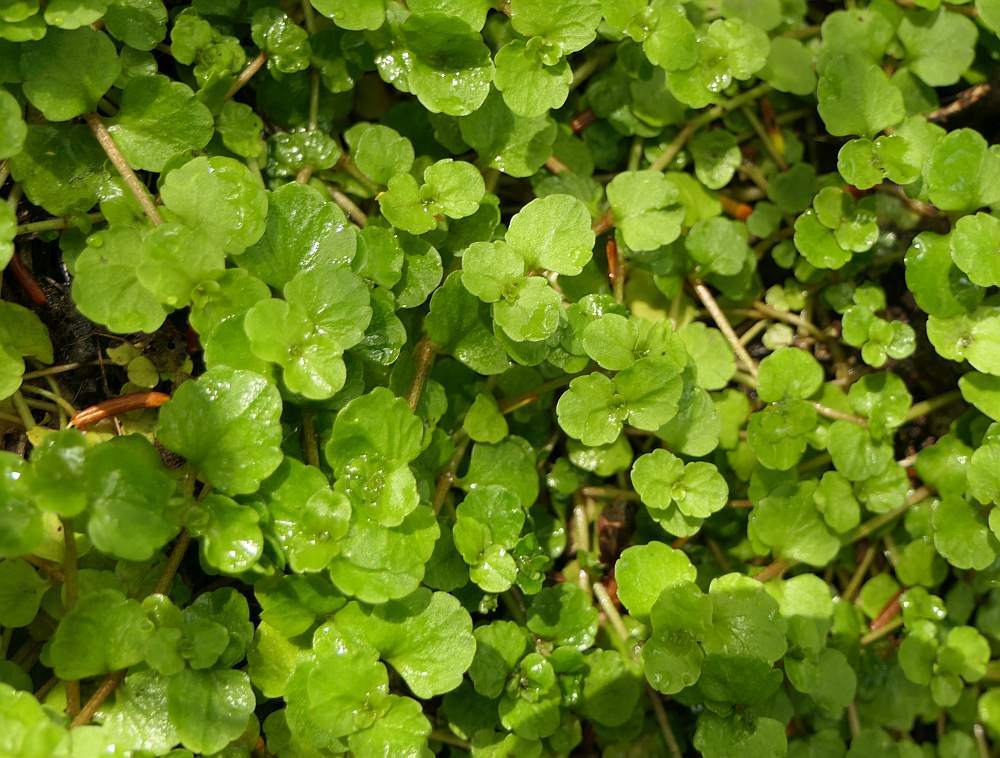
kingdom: Plantae
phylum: Tracheophyta
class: Magnoliopsida
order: Saxifragales
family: Saxifragaceae
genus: Chrysosplenium
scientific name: Chrysosplenium americanum
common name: American golden-saxifrage
